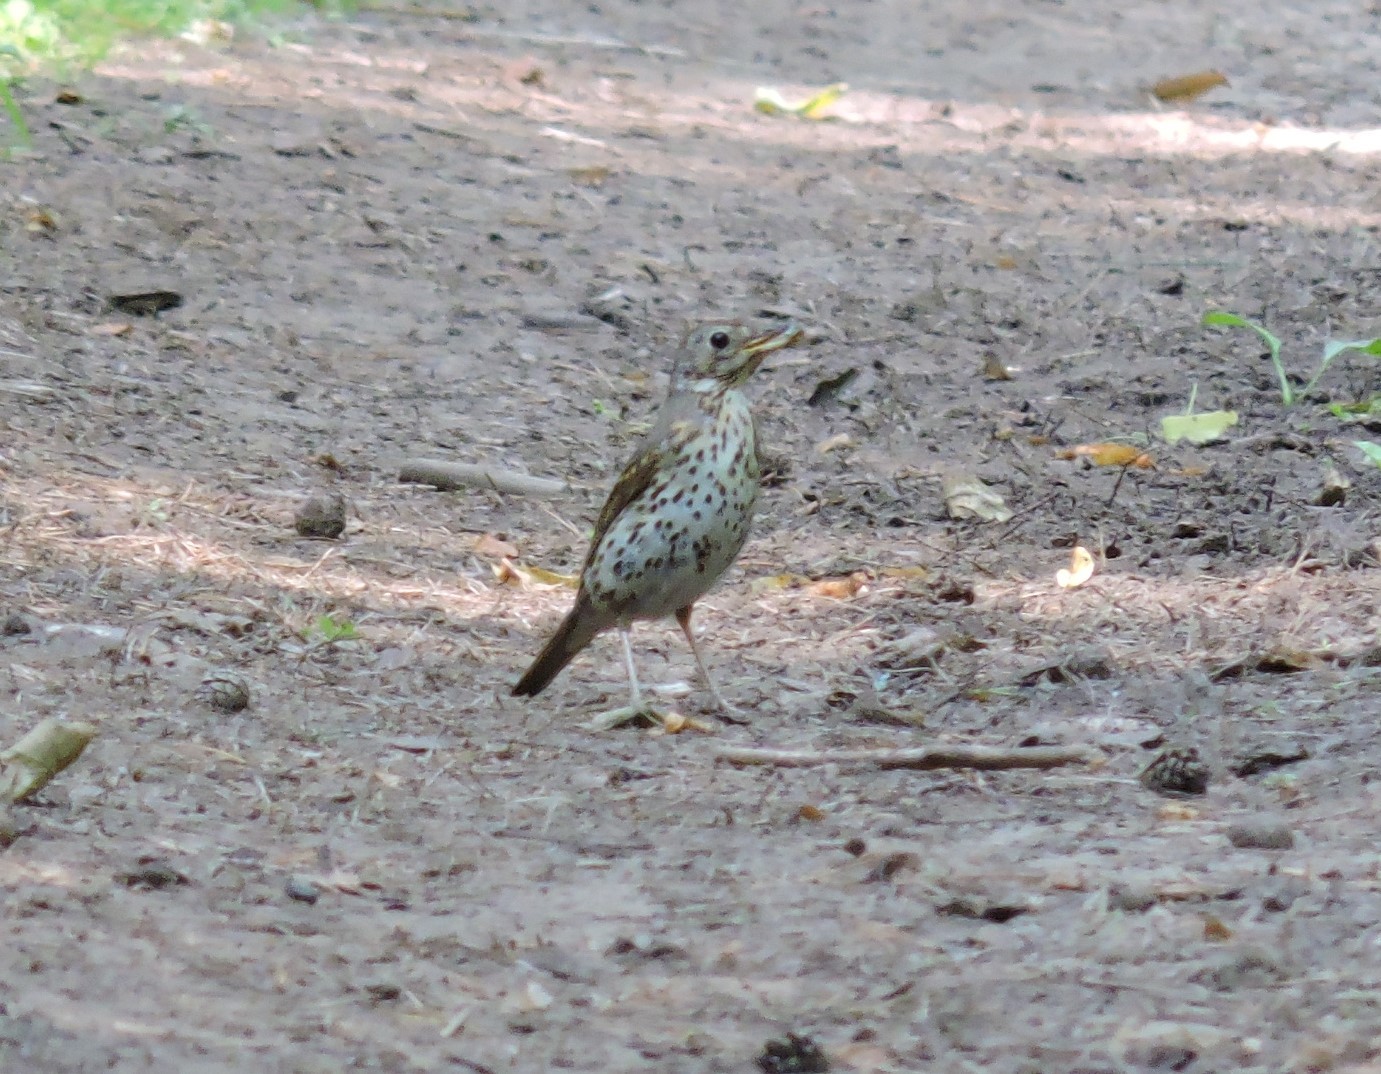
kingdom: Animalia
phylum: Chordata
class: Aves
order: Passeriformes
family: Turdidae
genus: Turdus
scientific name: Turdus philomelos
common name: Song thrush
